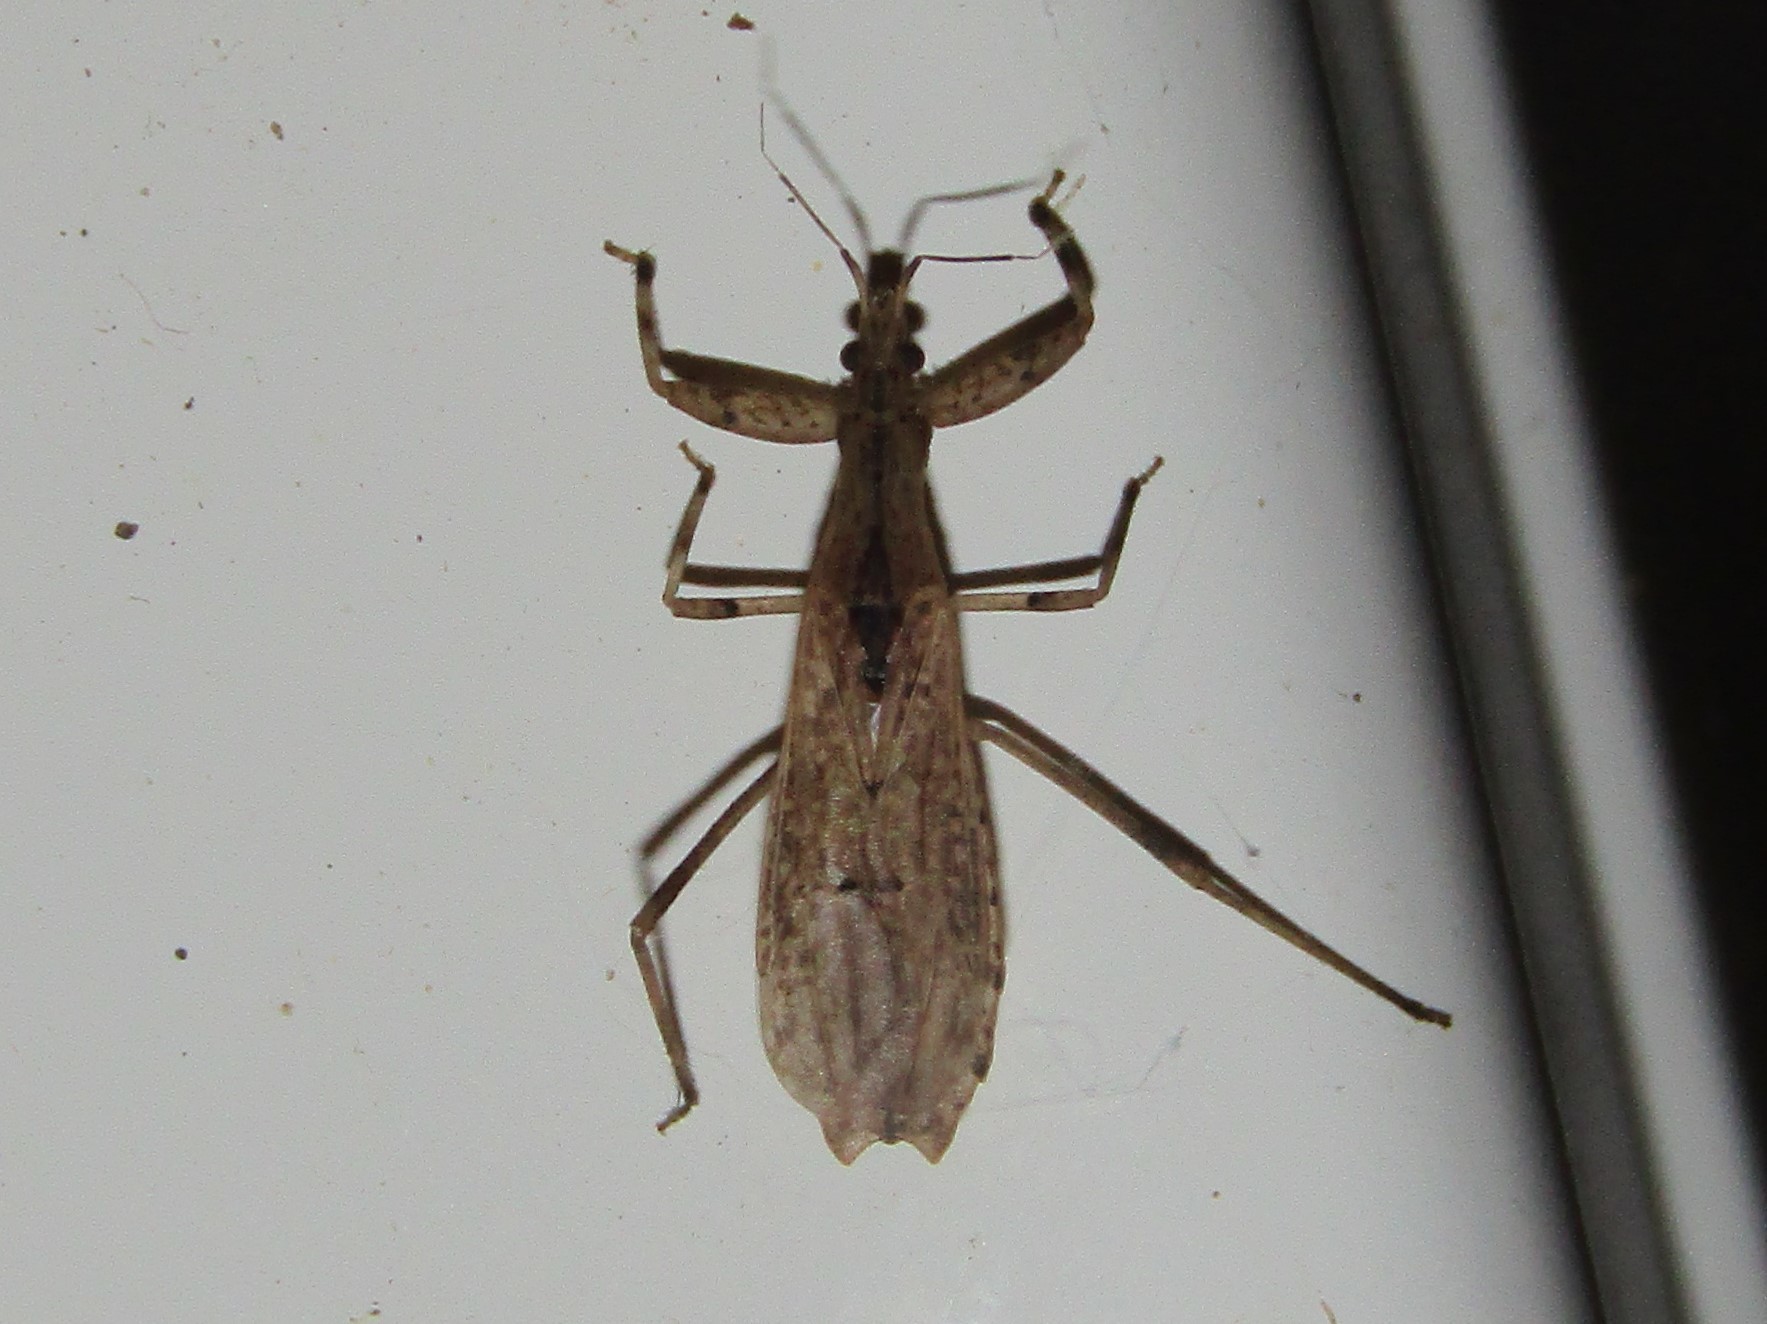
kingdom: Animalia
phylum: Arthropoda
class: Insecta
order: Hemiptera
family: Reduviidae
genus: Ctenotrachelus
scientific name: Ctenotrachelus shermani
